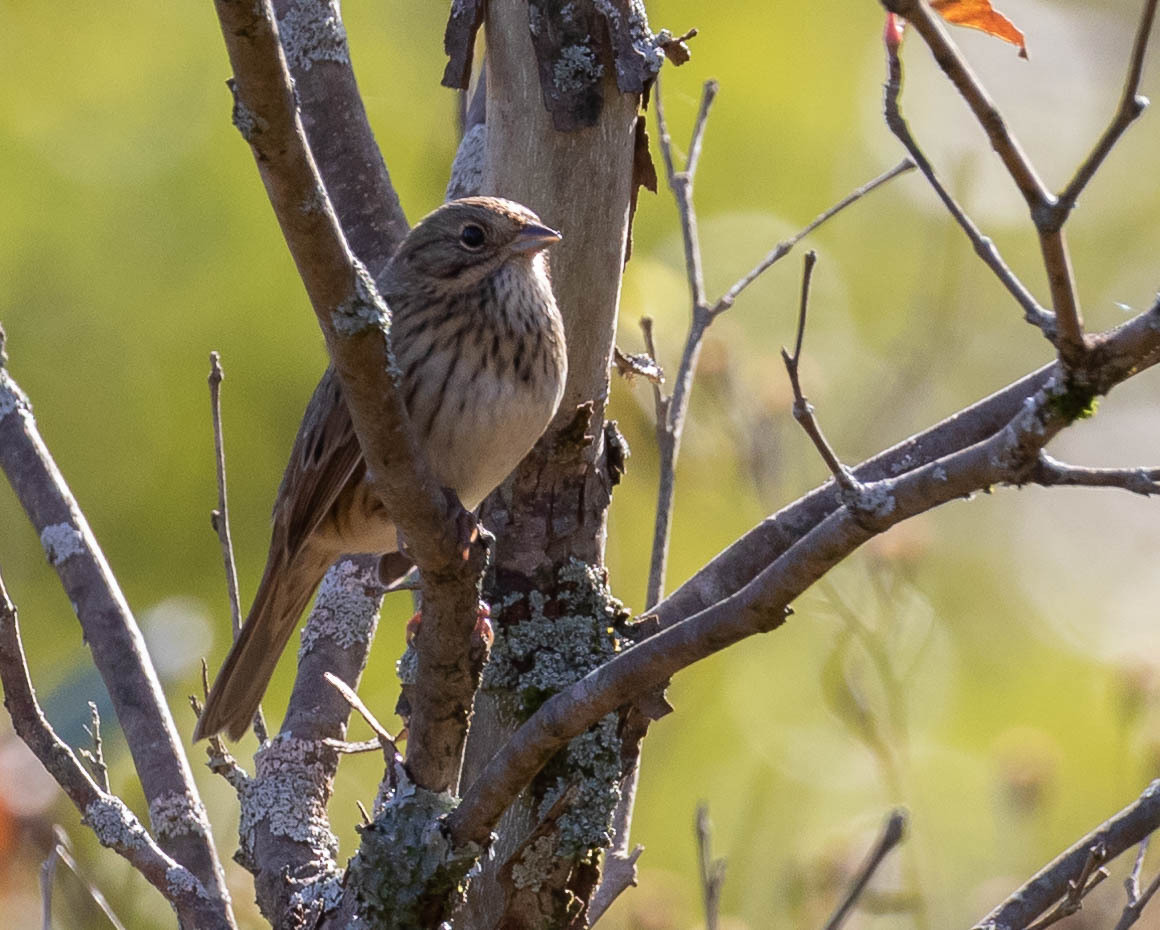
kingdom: Animalia
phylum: Chordata
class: Aves
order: Passeriformes
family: Passerellidae
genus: Melospiza
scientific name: Melospiza lincolnii
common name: Lincoln's sparrow
